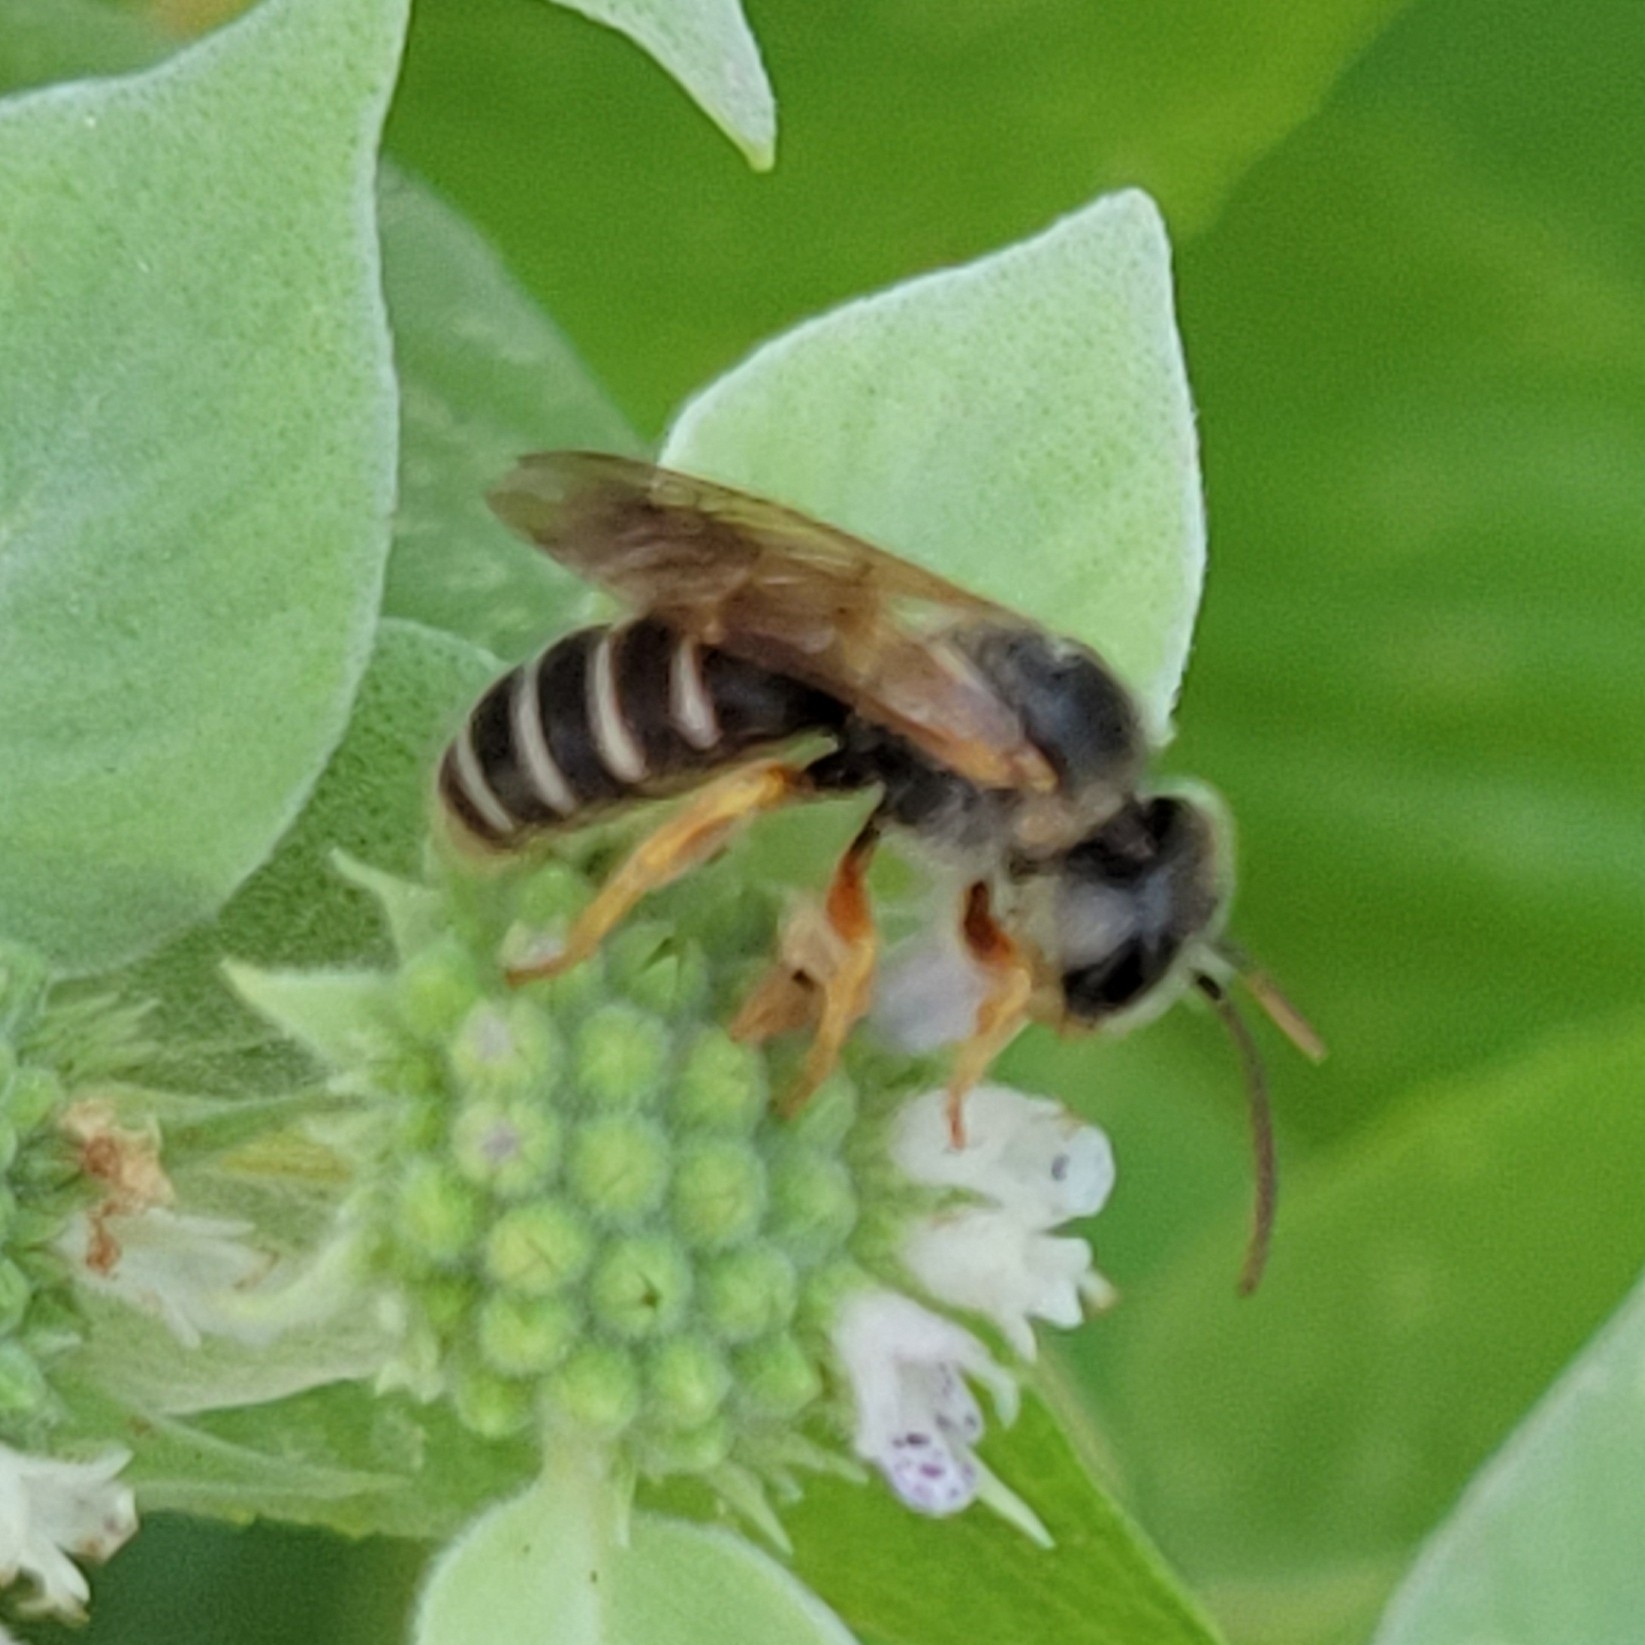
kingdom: Animalia
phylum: Arthropoda
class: Insecta
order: Hymenoptera
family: Halictidae
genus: Halictus
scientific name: Halictus parallelus
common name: Parallel-striped sweat bee
